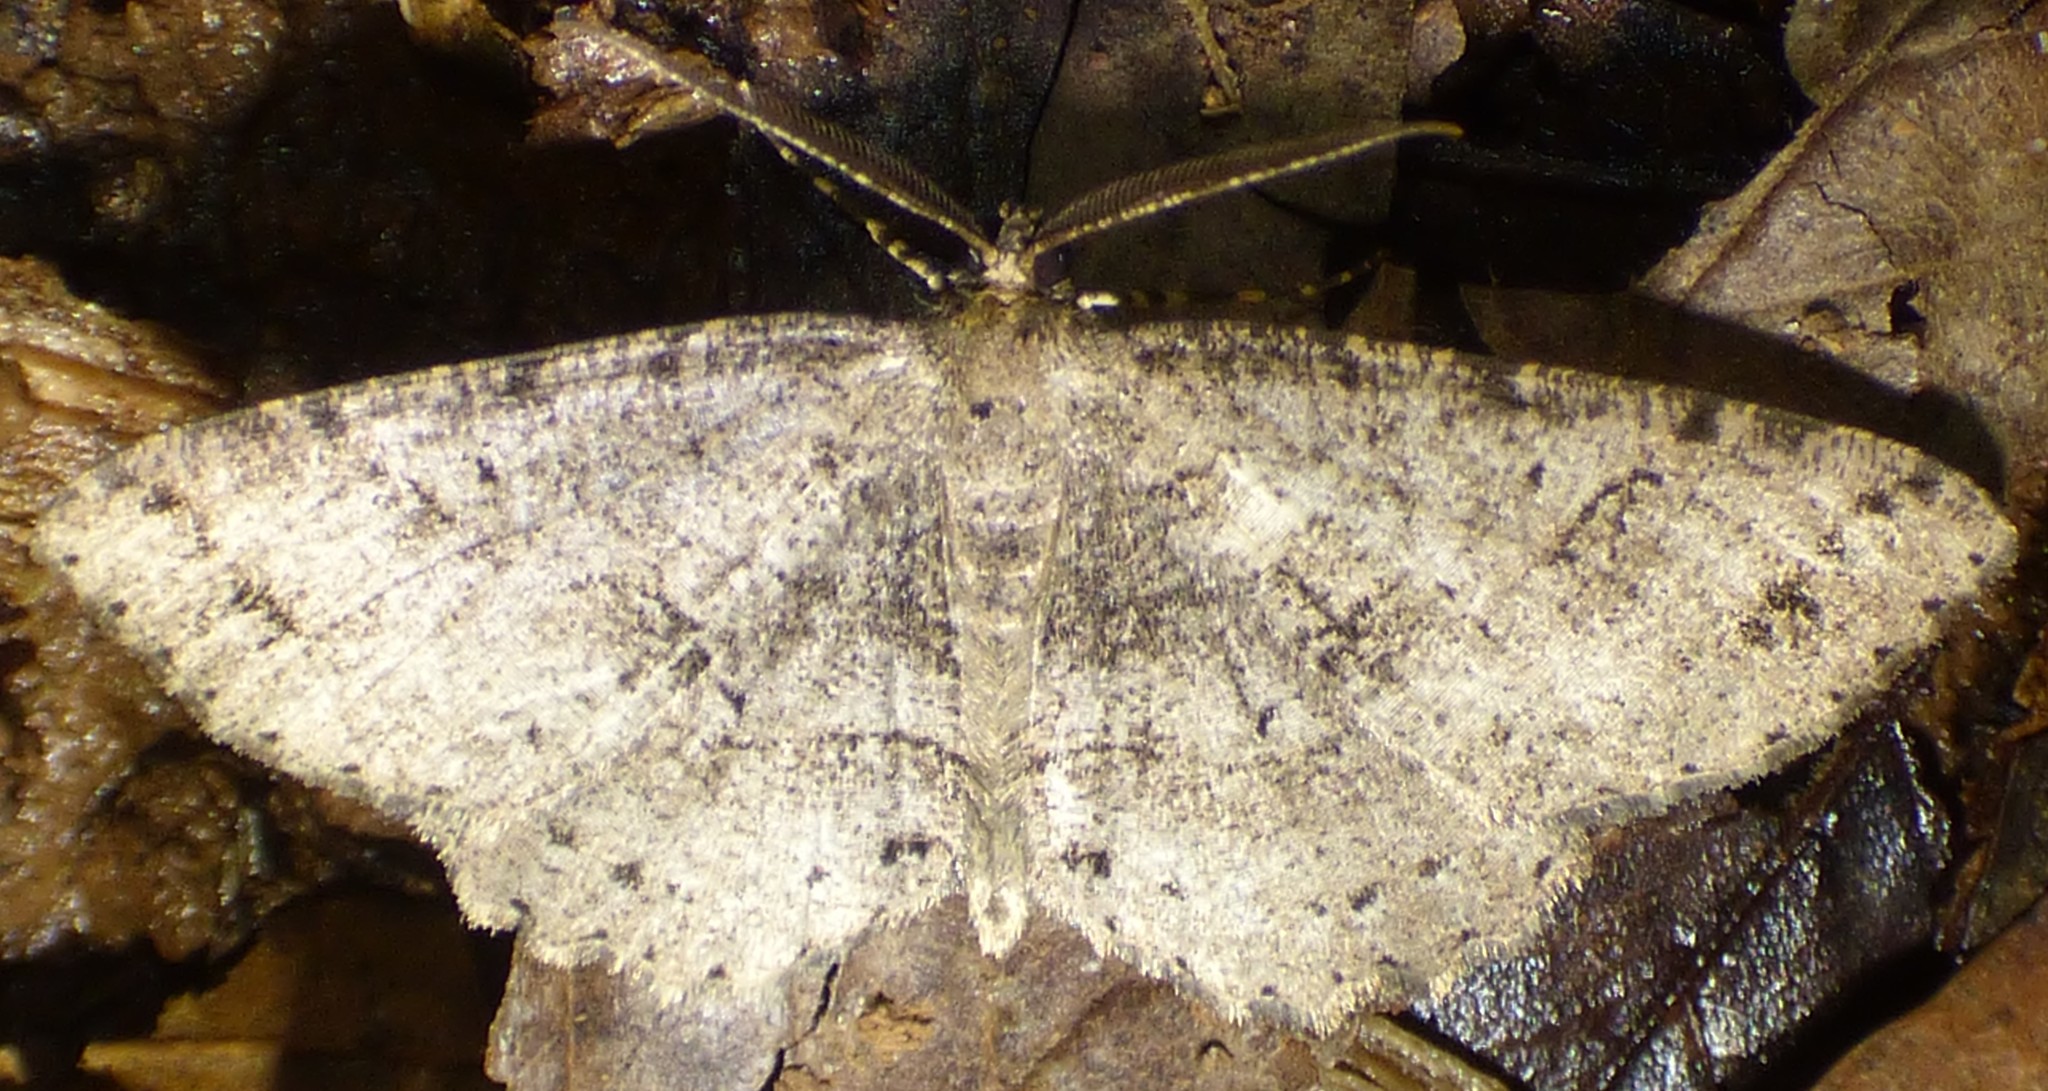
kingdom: Animalia
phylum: Arthropoda
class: Insecta
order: Lepidoptera
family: Geometridae
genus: Melanolophia
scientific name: Melanolophia canadaria
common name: Canadian melanolophia
